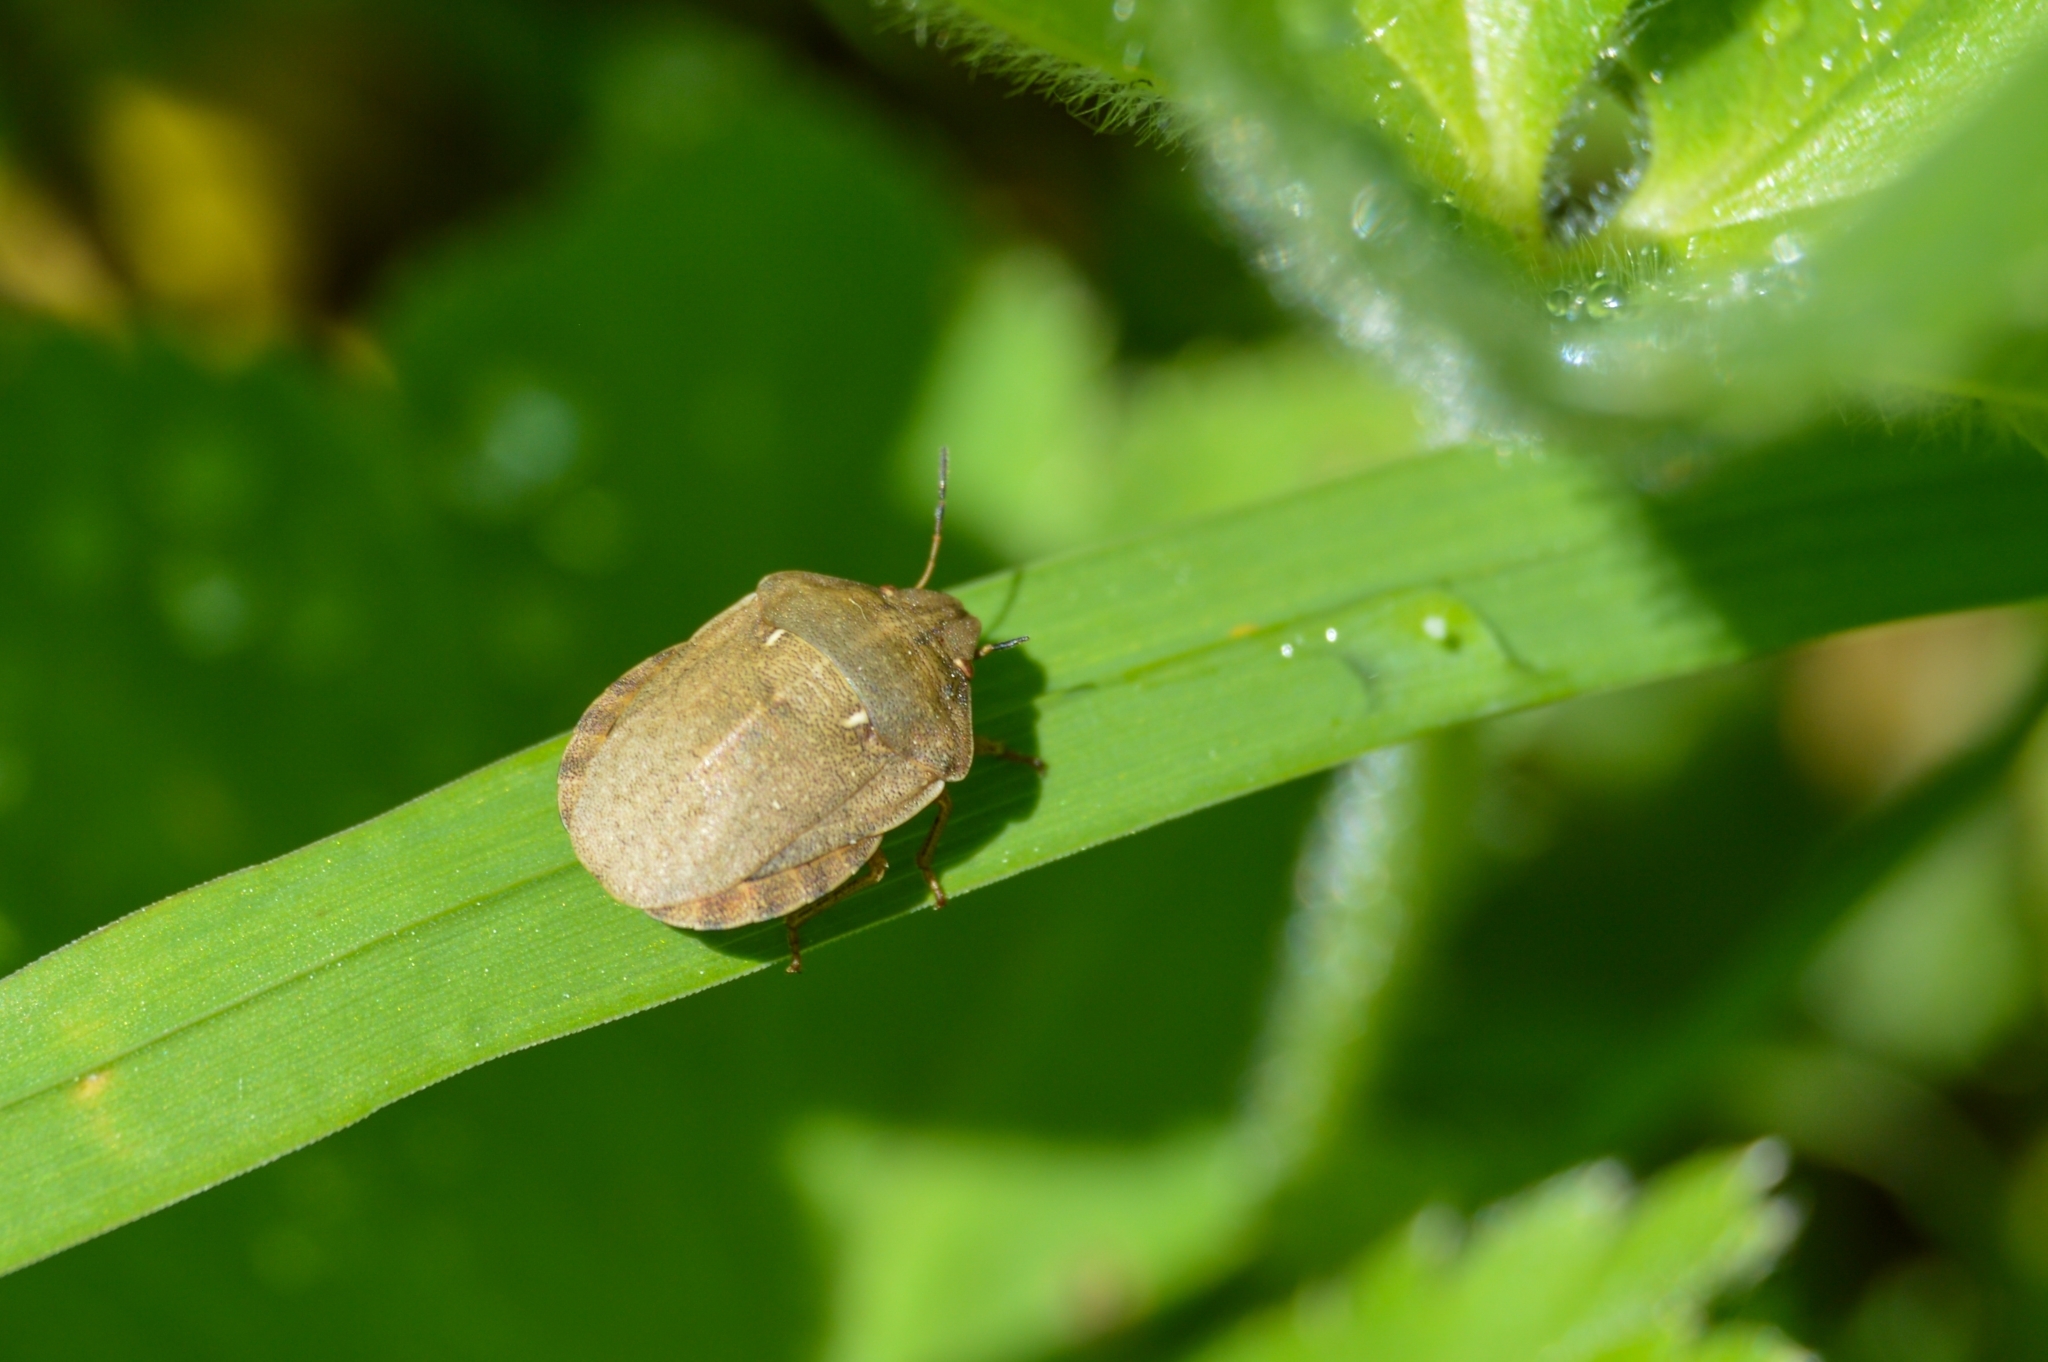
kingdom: Animalia
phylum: Arthropoda
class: Insecta
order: Hemiptera
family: Scutelleridae
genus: Eurygaster
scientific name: Eurygaster testudinaria
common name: Tortoise bug
